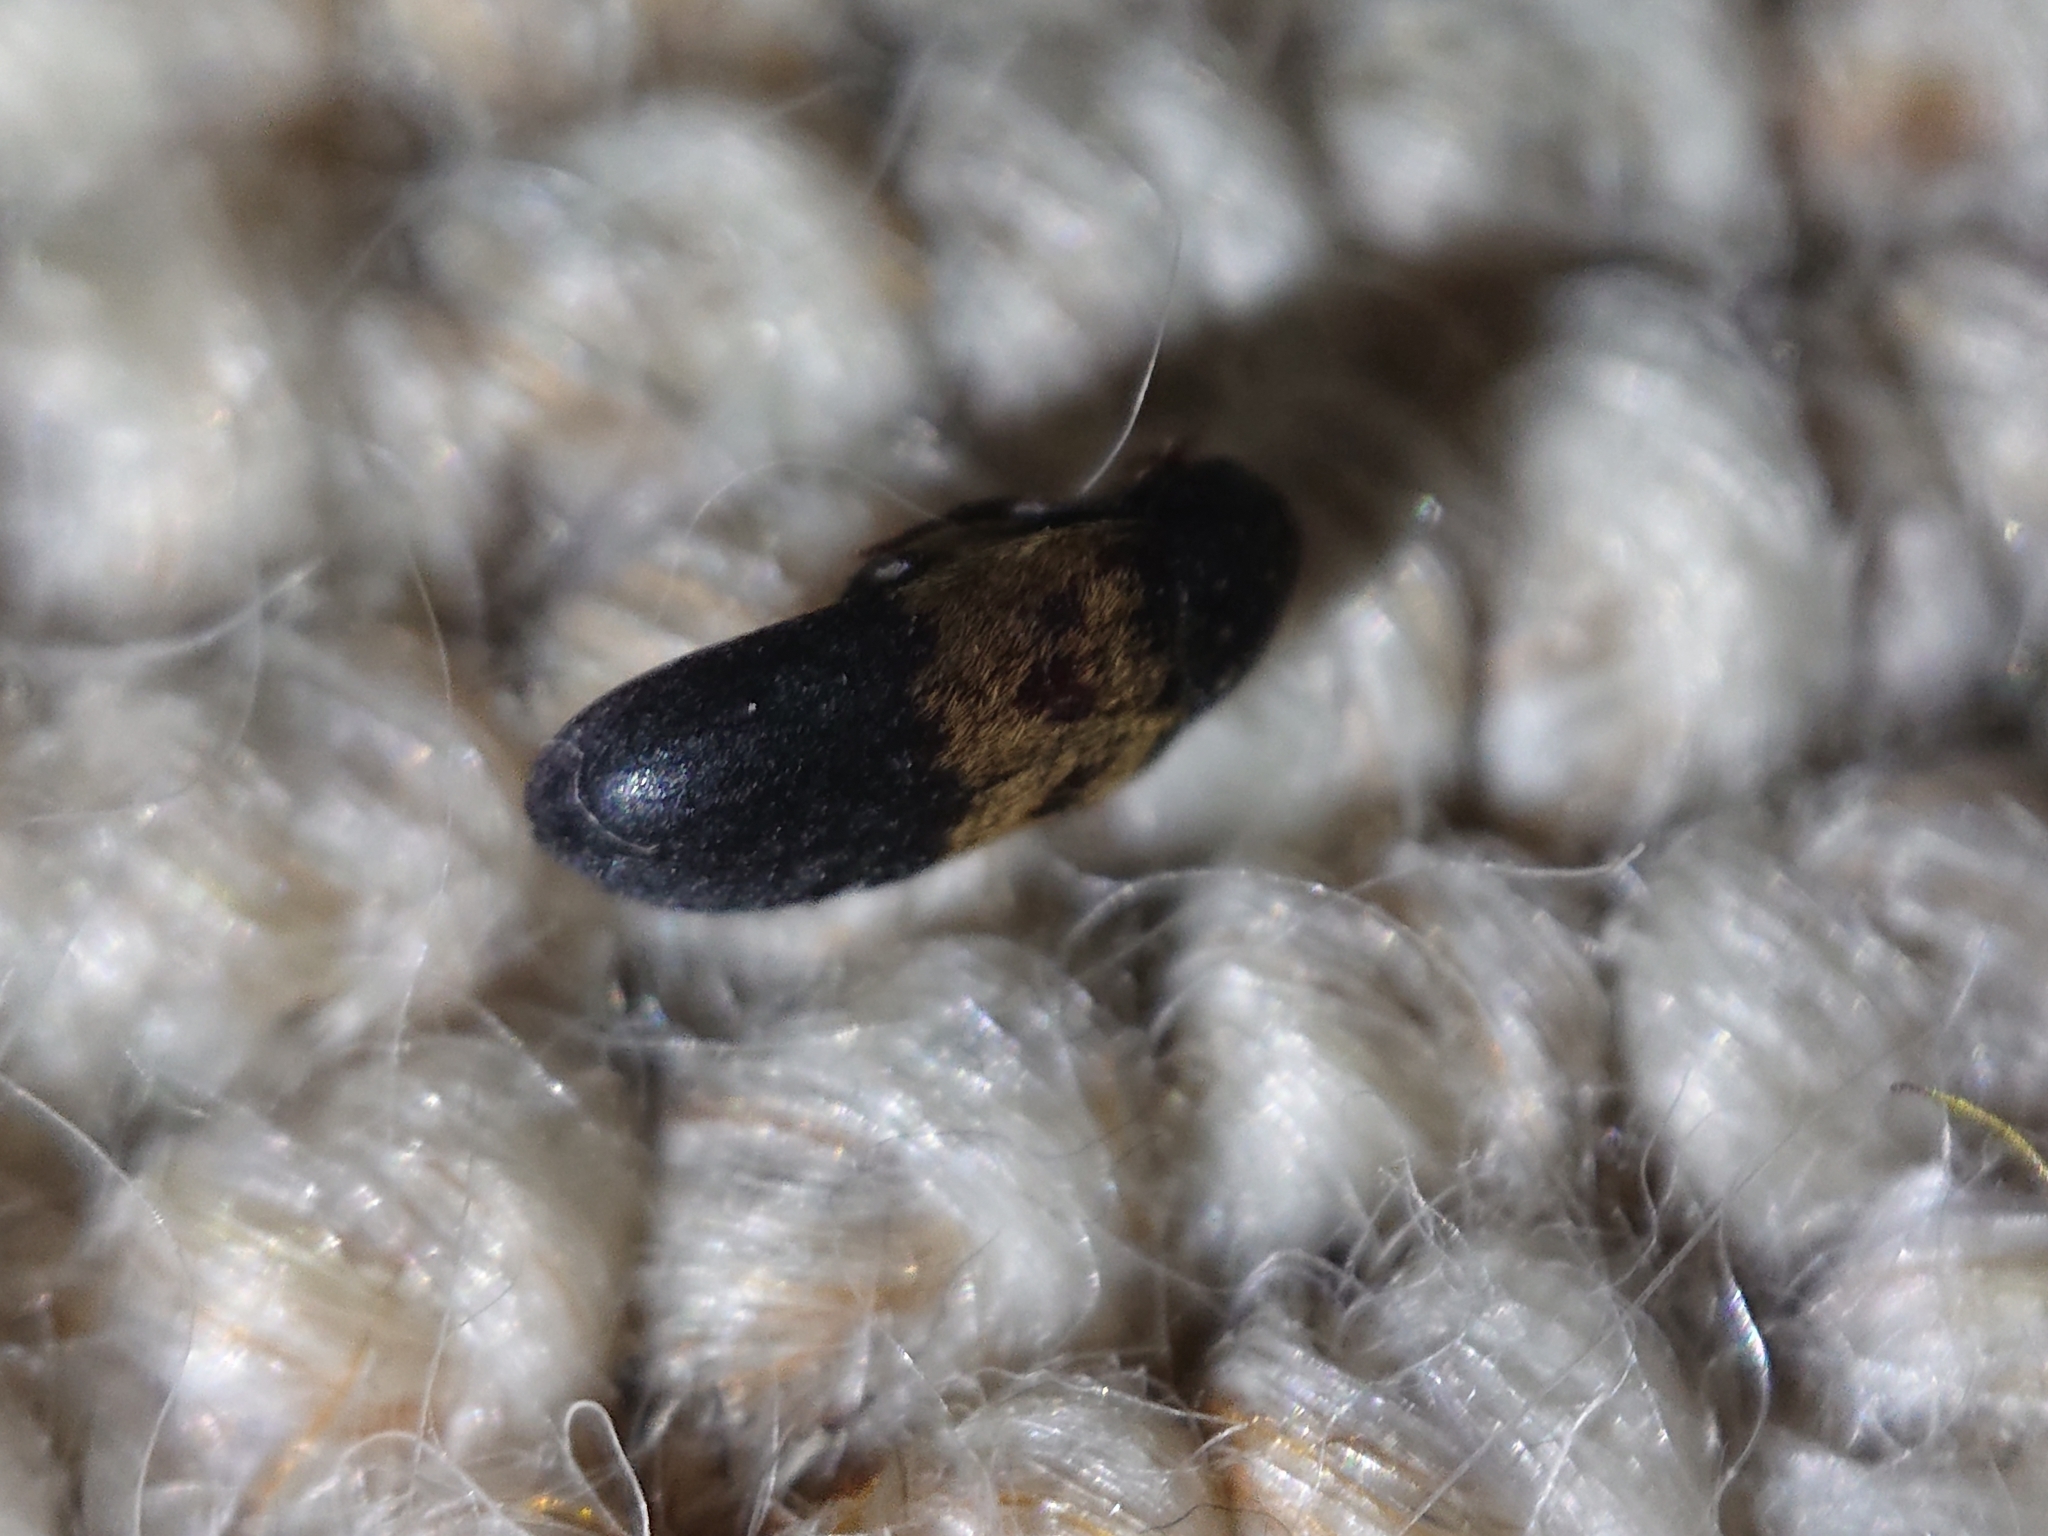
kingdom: Animalia
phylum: Arthropoda
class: Insecta
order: Coleoptera
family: Dermestidae
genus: Dermestes
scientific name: Dermestes lardarius
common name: Larder beetle
